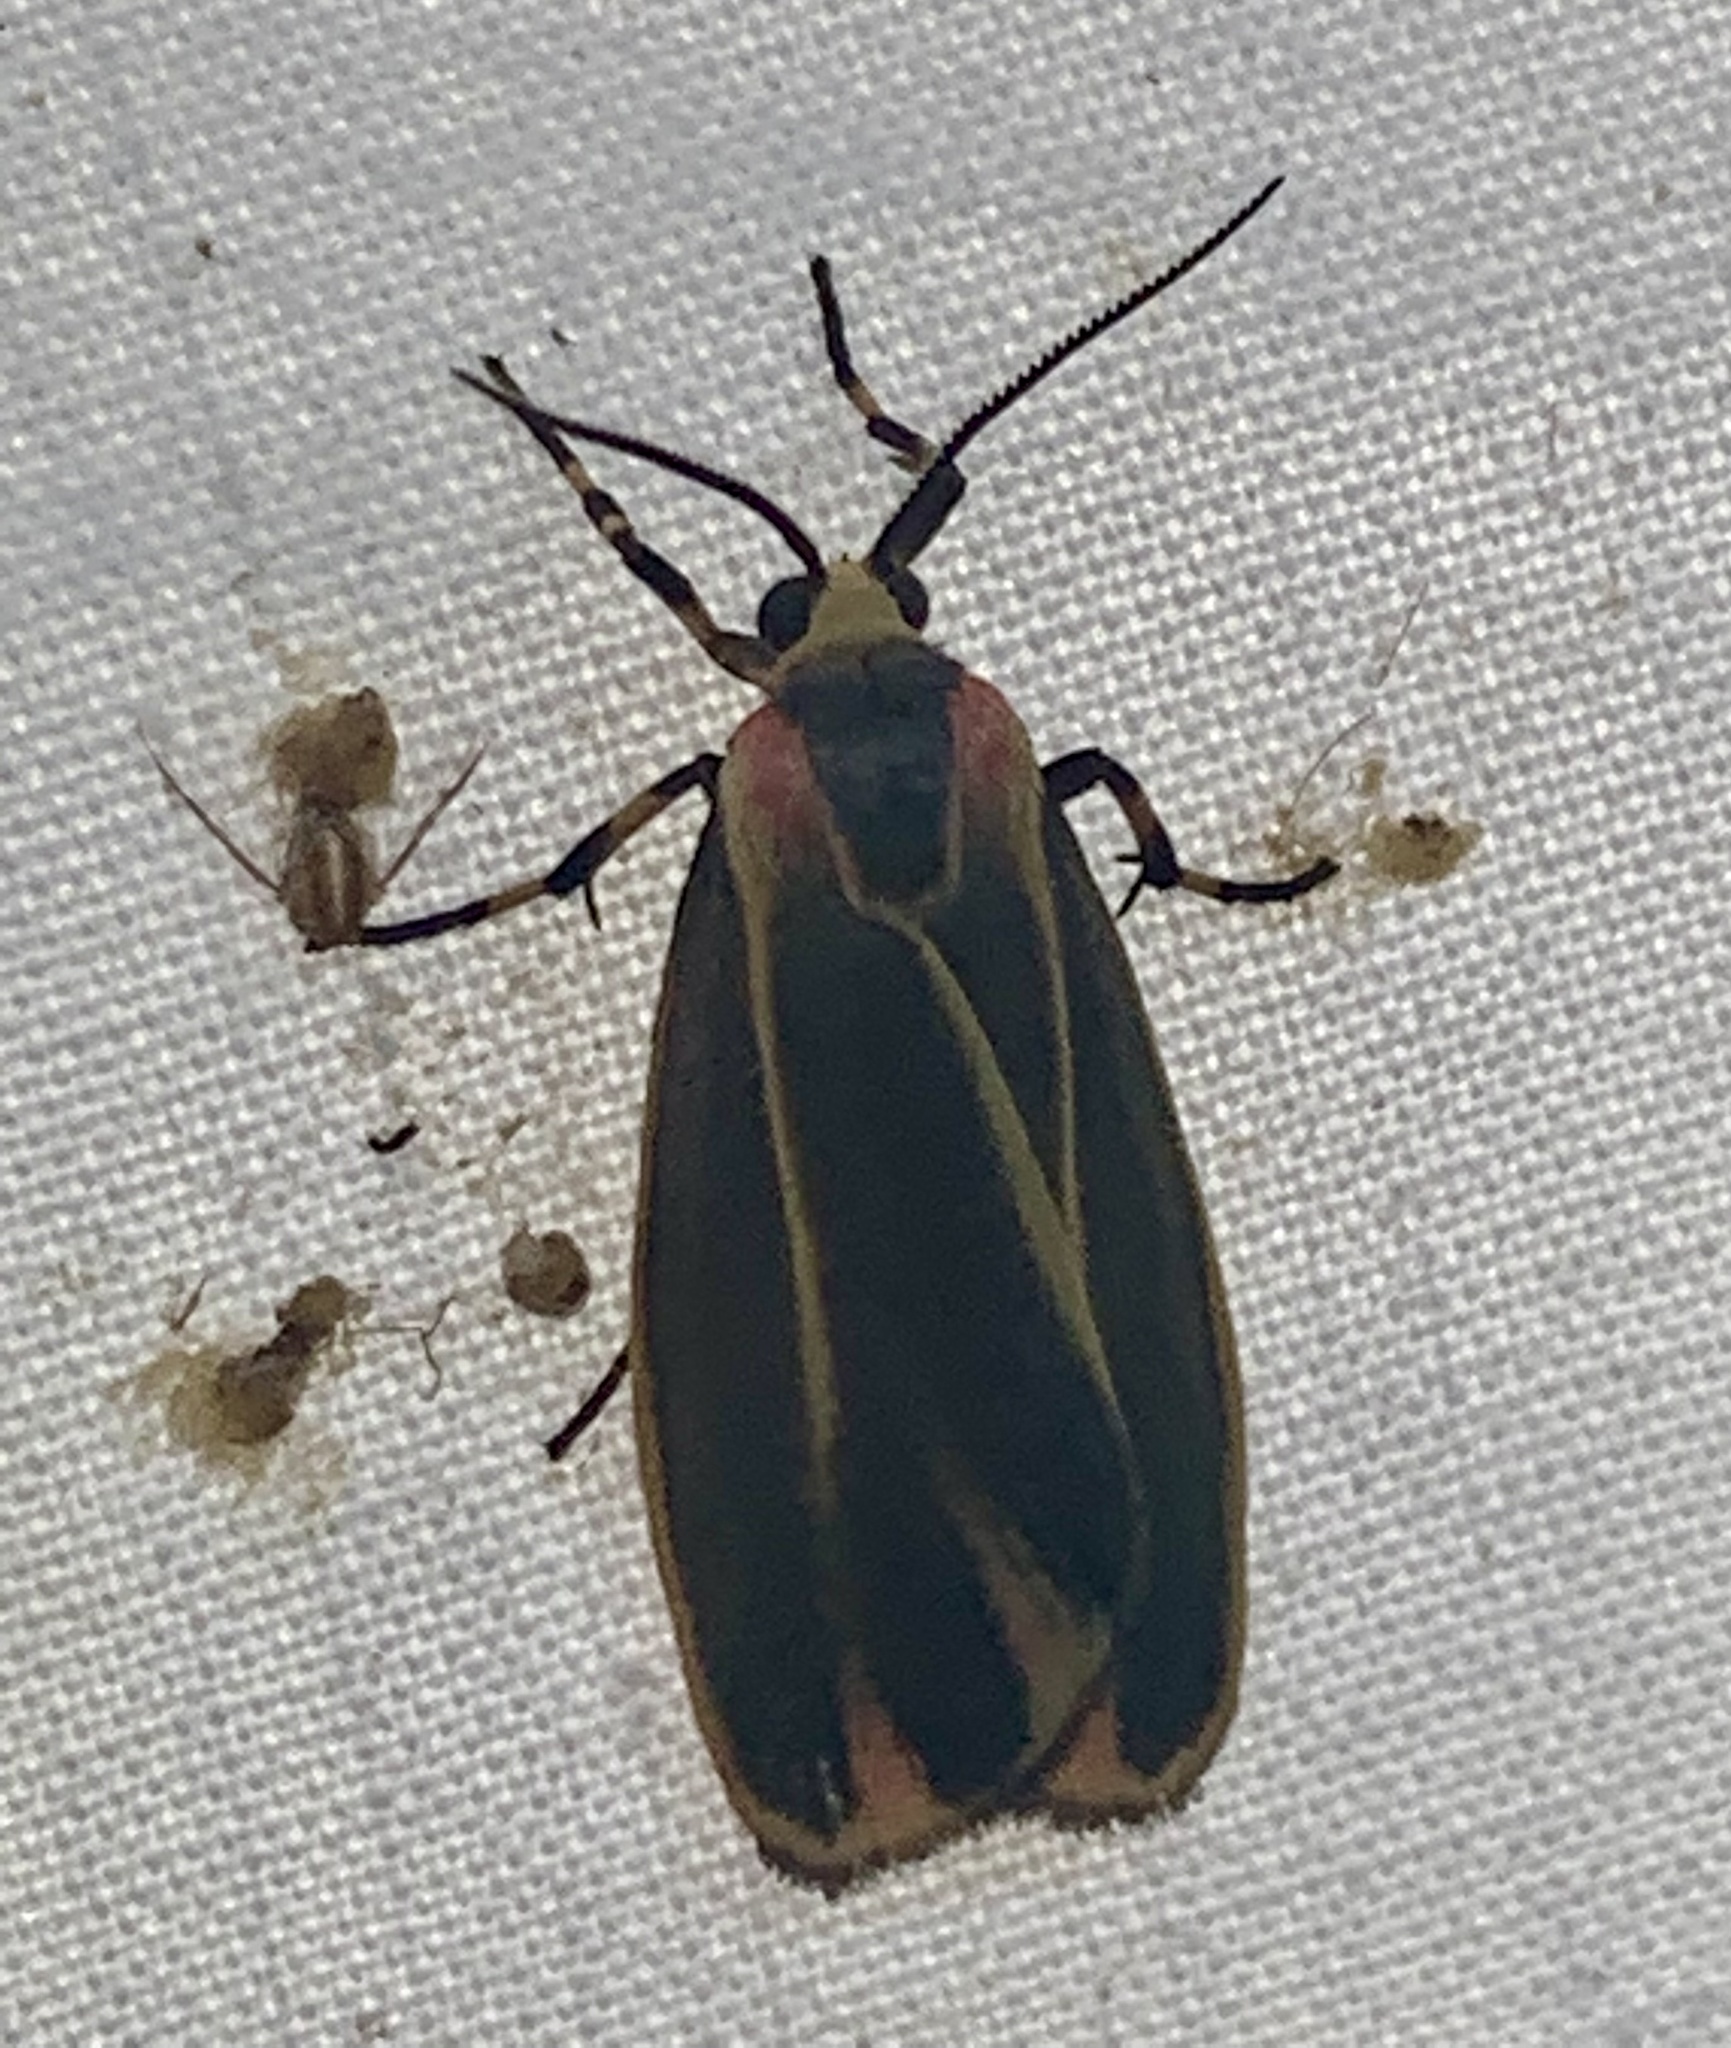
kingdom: Animalia
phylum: Arthropoda
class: Insecta
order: Lepidoptera
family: Erebidae
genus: Hypoprepia
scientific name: Hypoprepia fucosa
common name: Painted lichen moth
